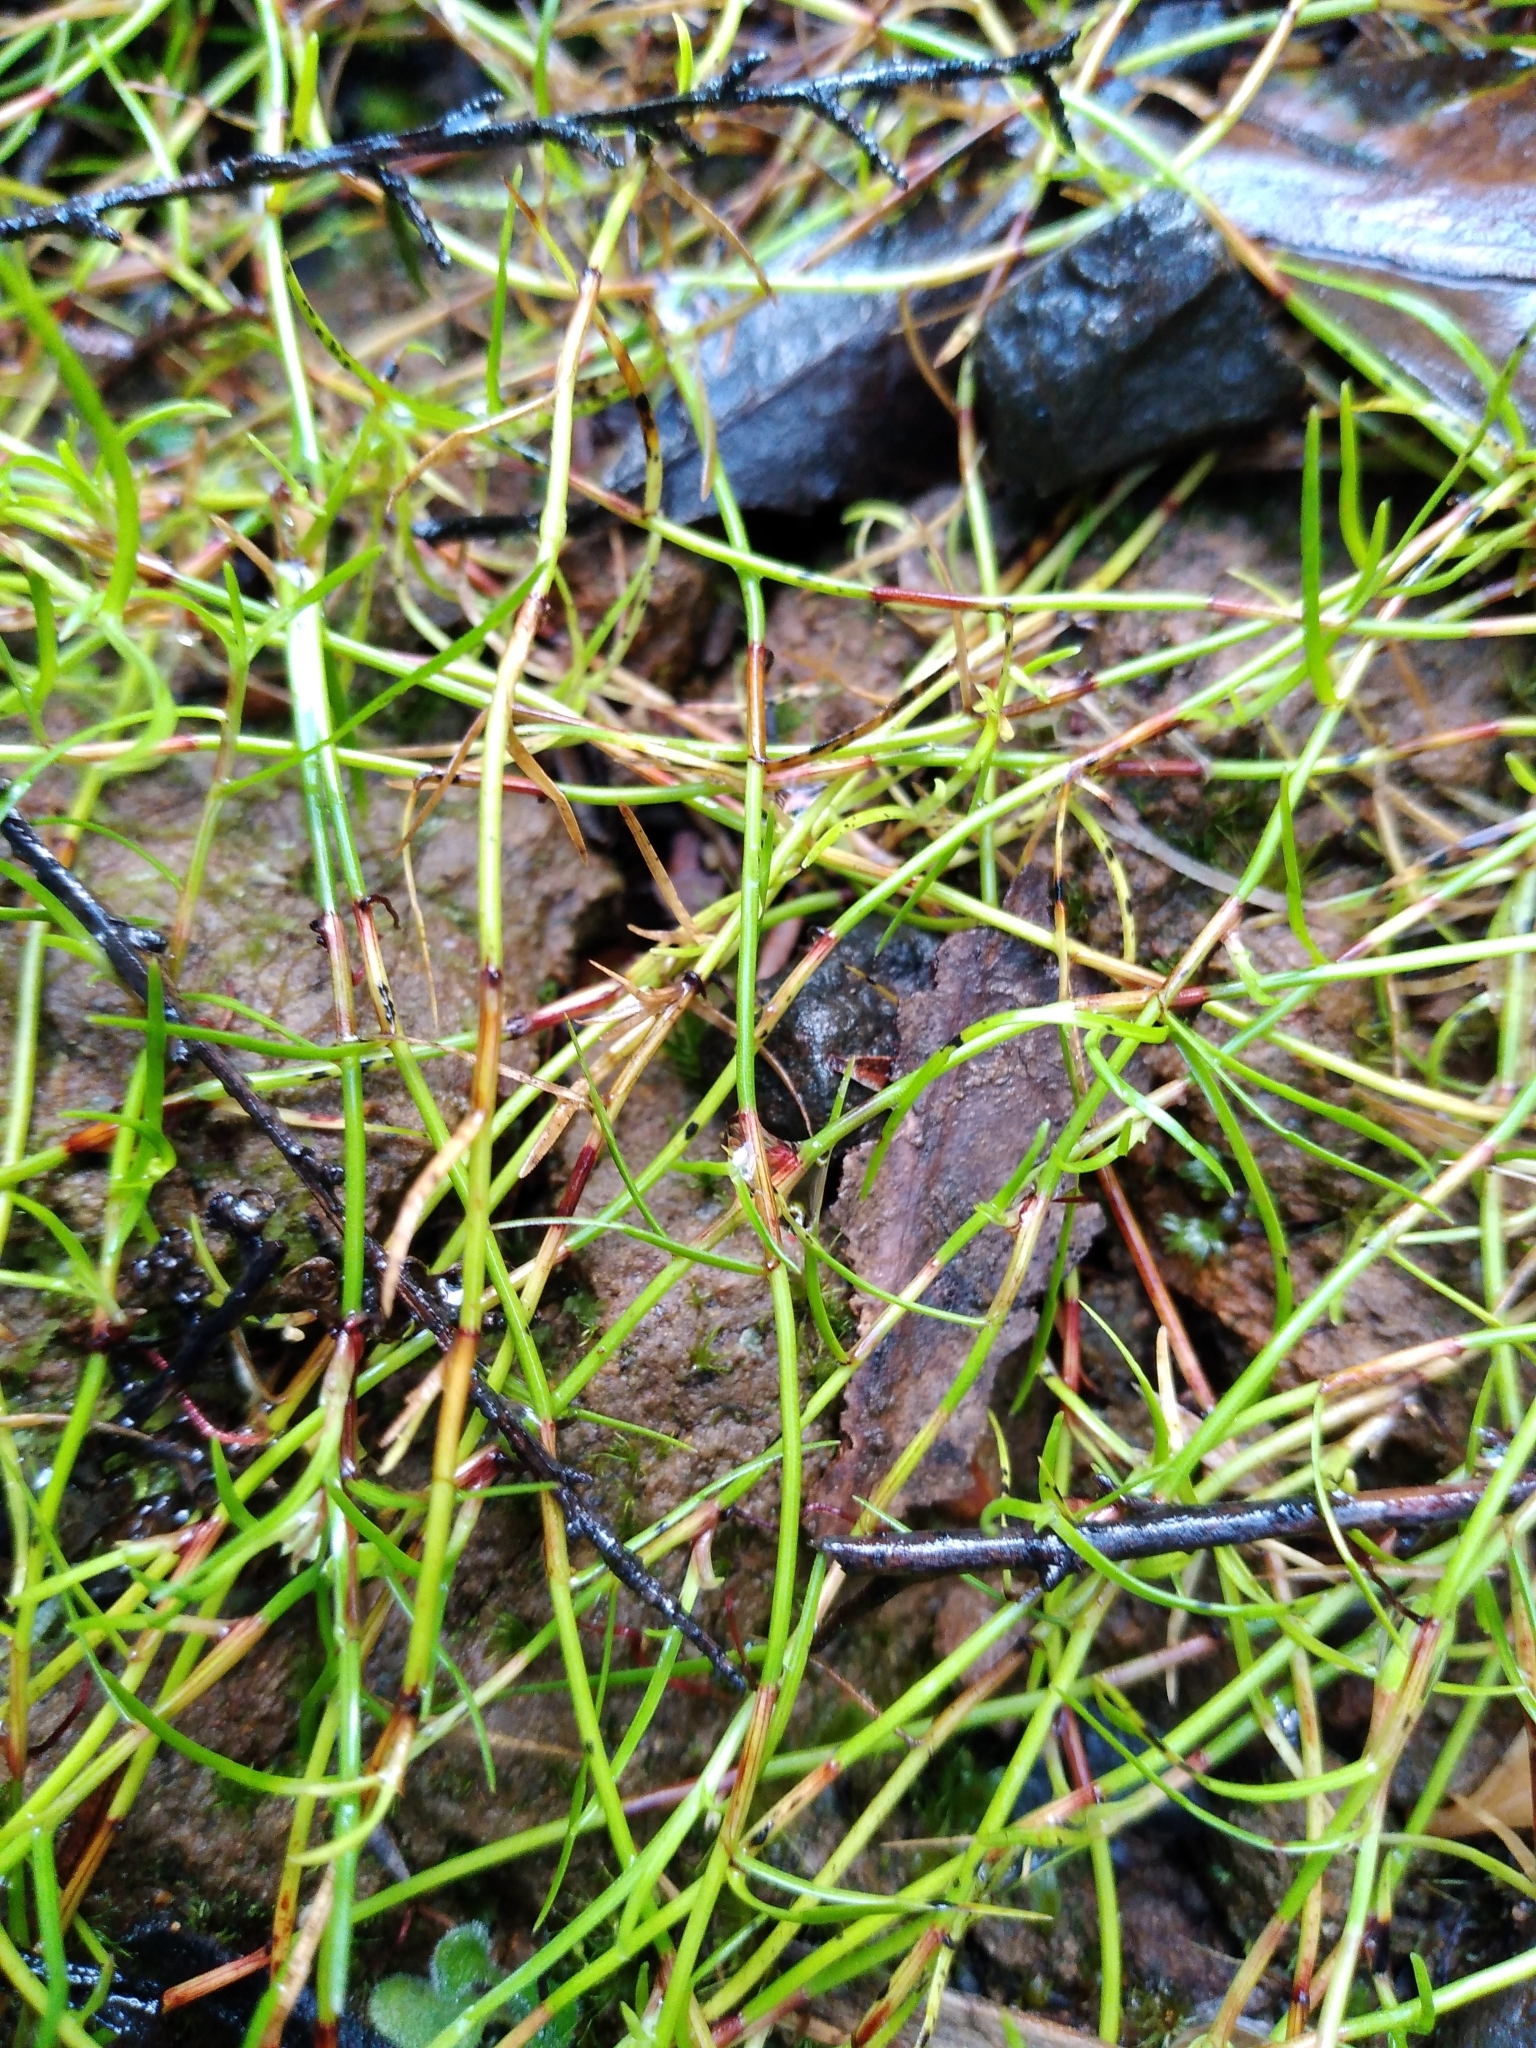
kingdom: Plantae
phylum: Tracheophyta
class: Liliopsida
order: Poales
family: Cyperaceae
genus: Schoenus
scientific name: Schoenus maschalinus
